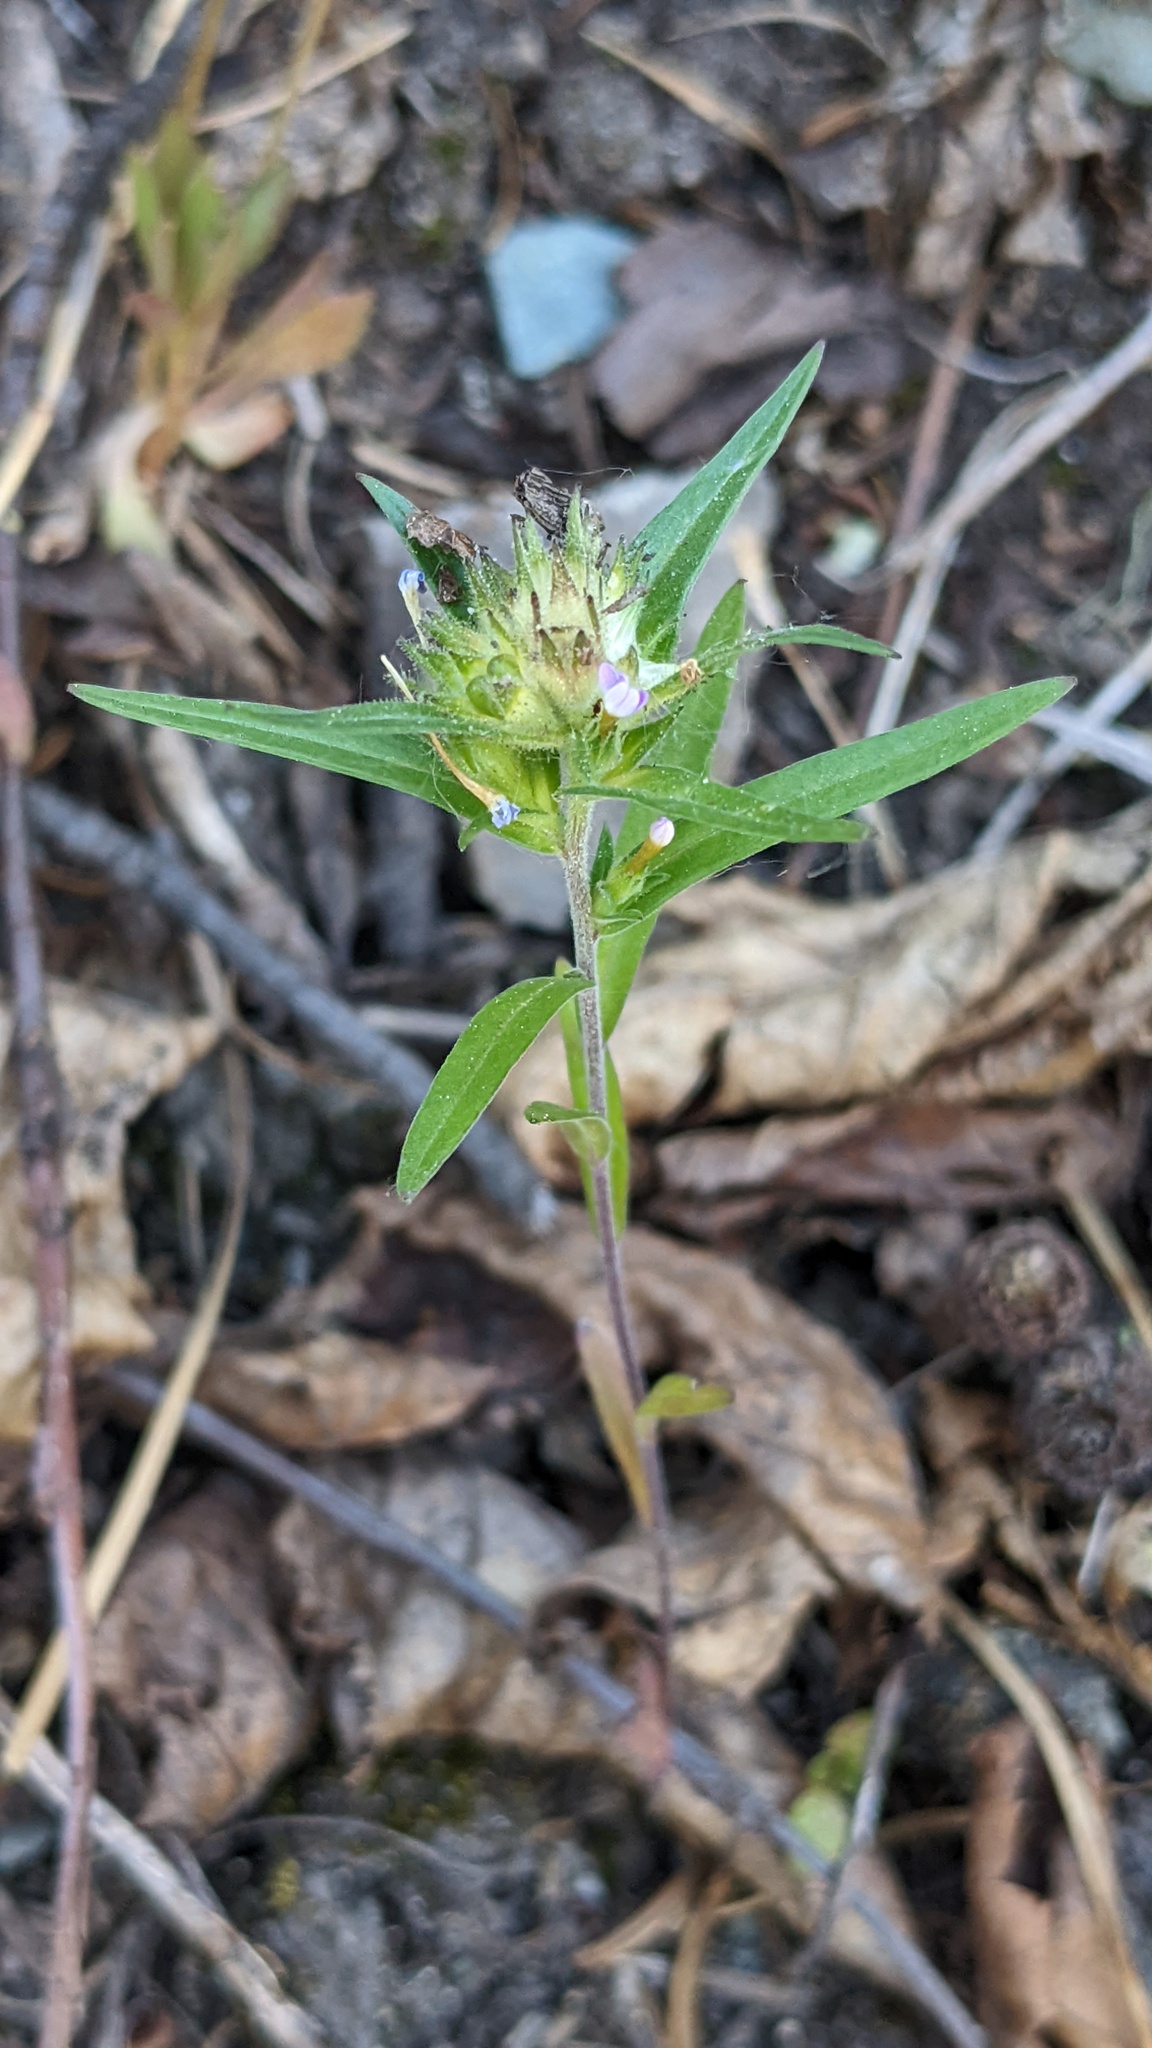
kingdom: Plantae
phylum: Tracheophyta
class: Magnoliopsida
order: Myrtales
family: Onagraceae
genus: Circaea
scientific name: Circaea alpina
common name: Alpine enchanter's-nightshade
